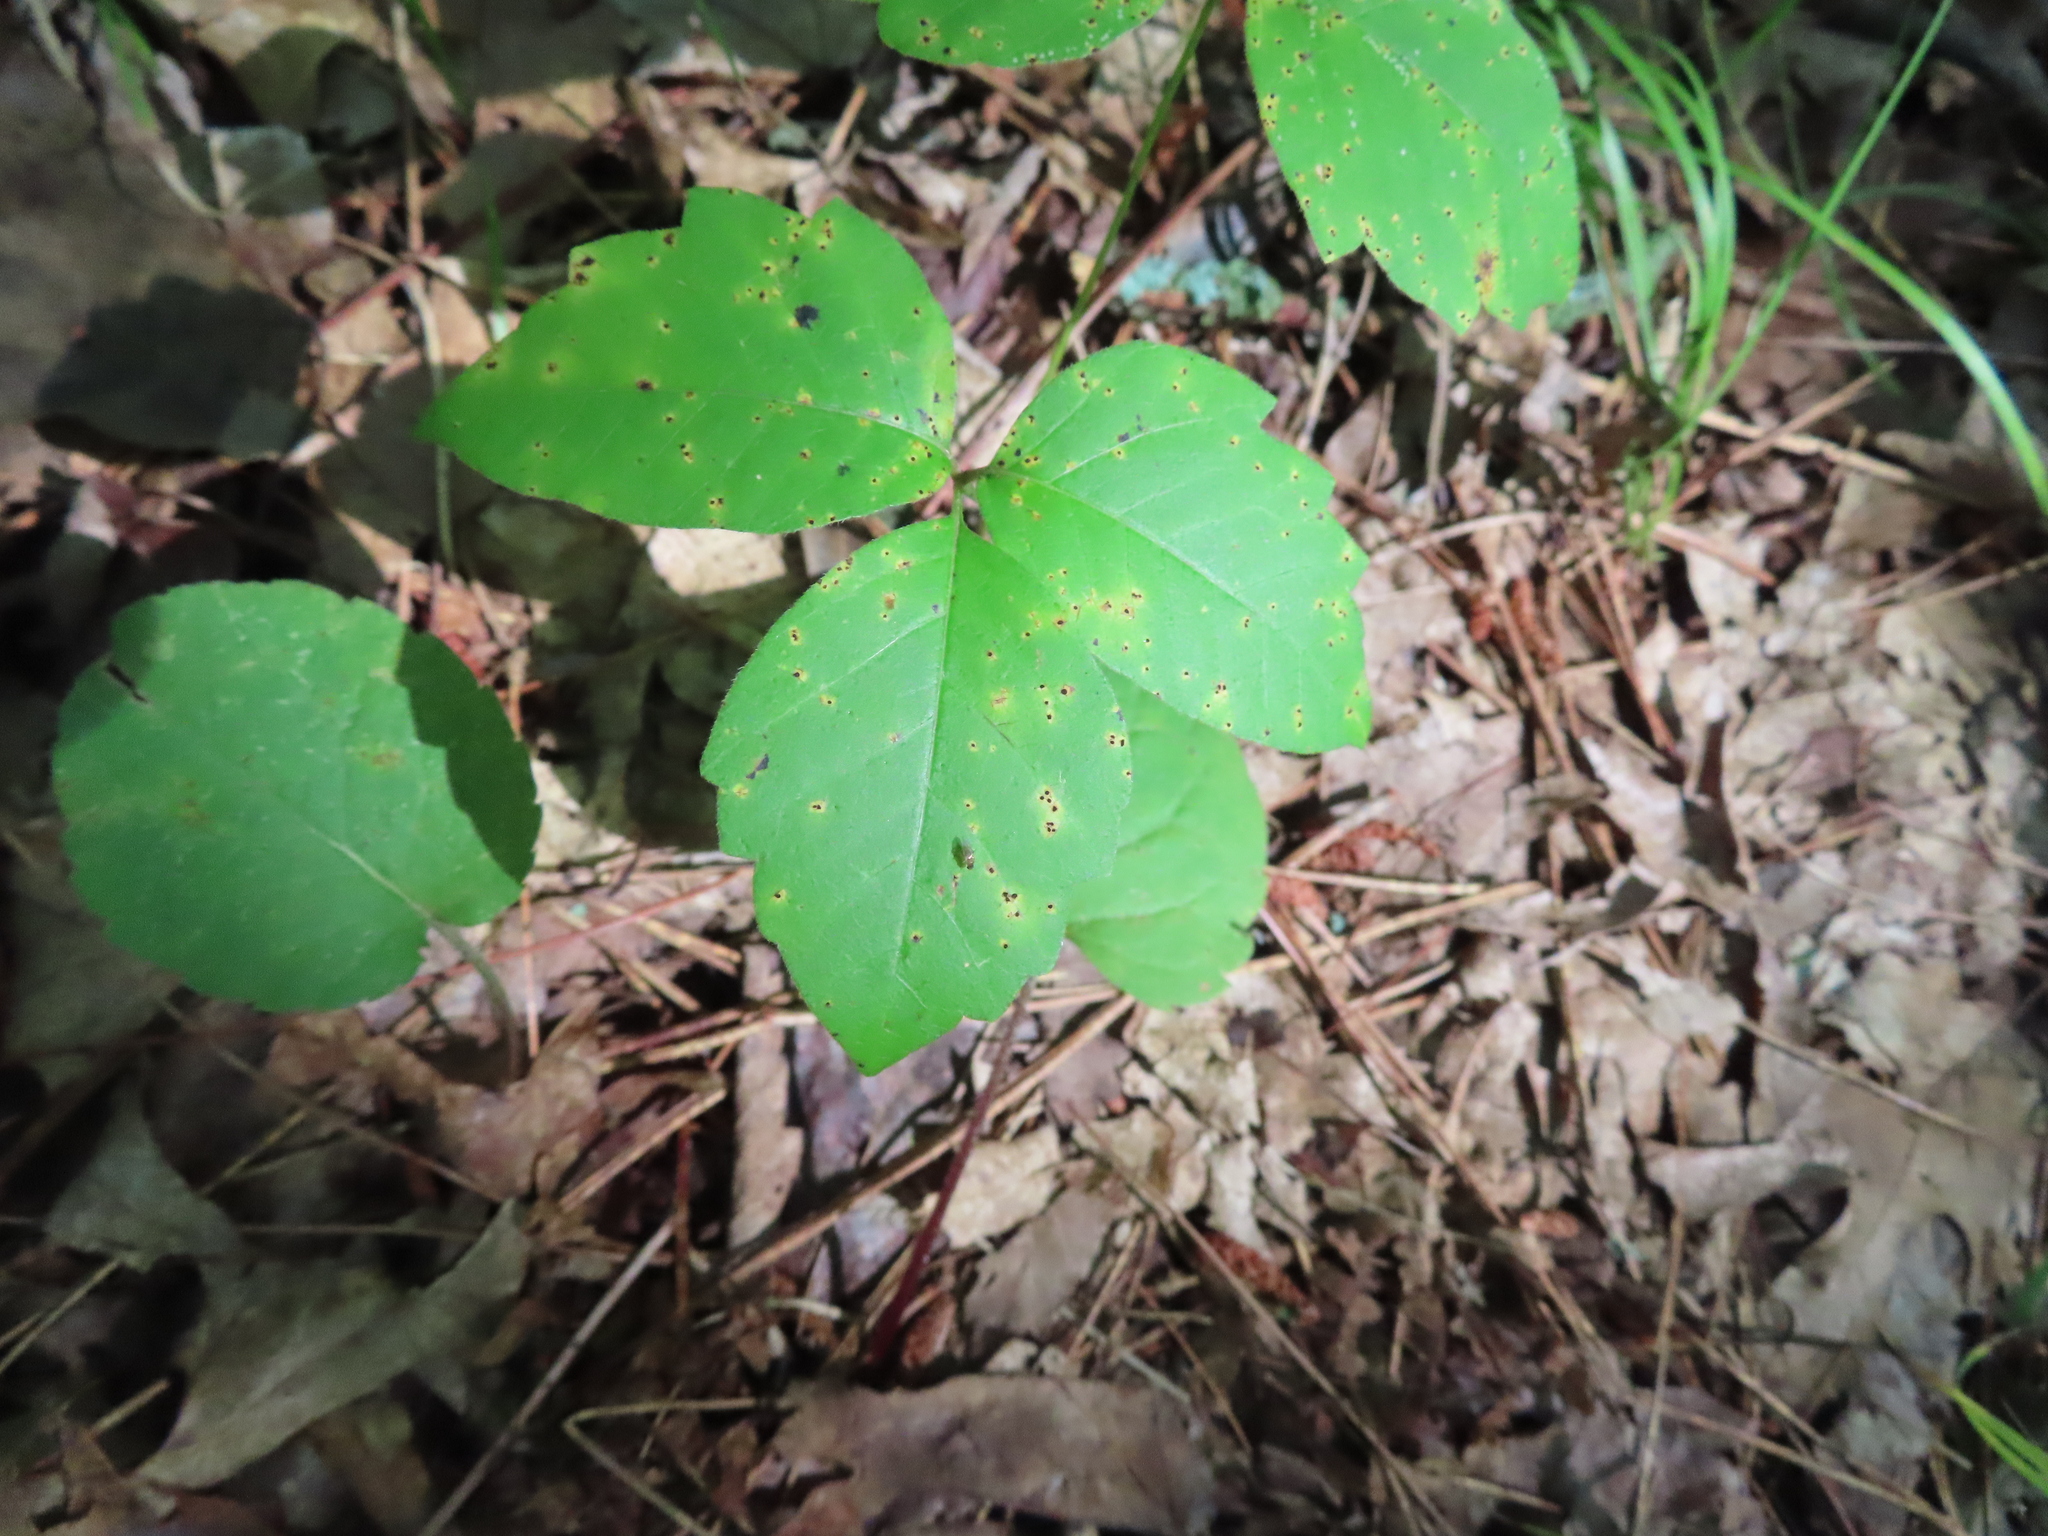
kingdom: Plantae
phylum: Tracheophyta
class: Magnoliopsida
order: Sapindales
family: Anacardiaceae
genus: Toxicodendron
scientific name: Toxicodendron radicans
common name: Poison ivy
